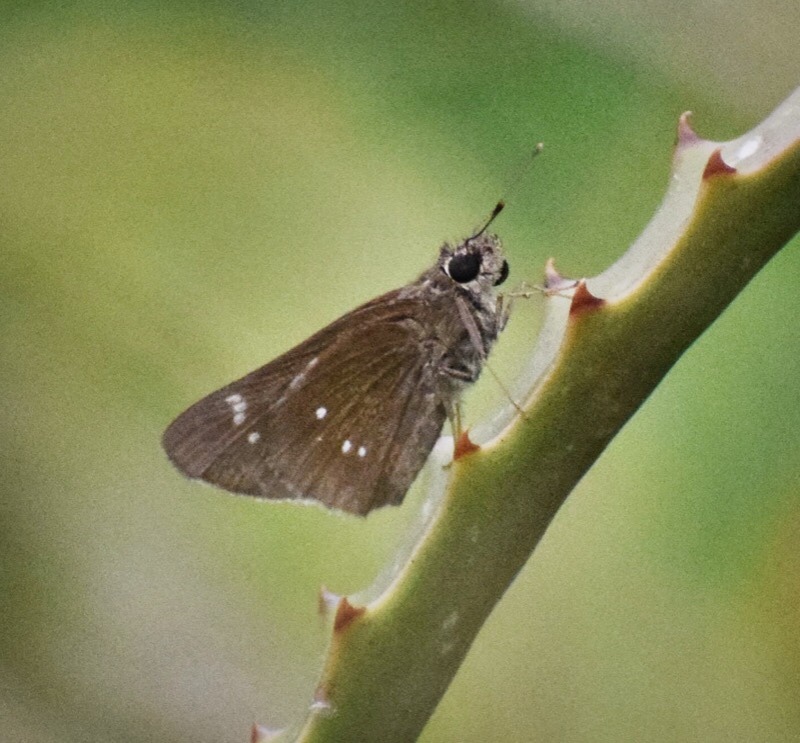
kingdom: Animalia
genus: Torbenlarsenia
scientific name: Torbenlarsenia
